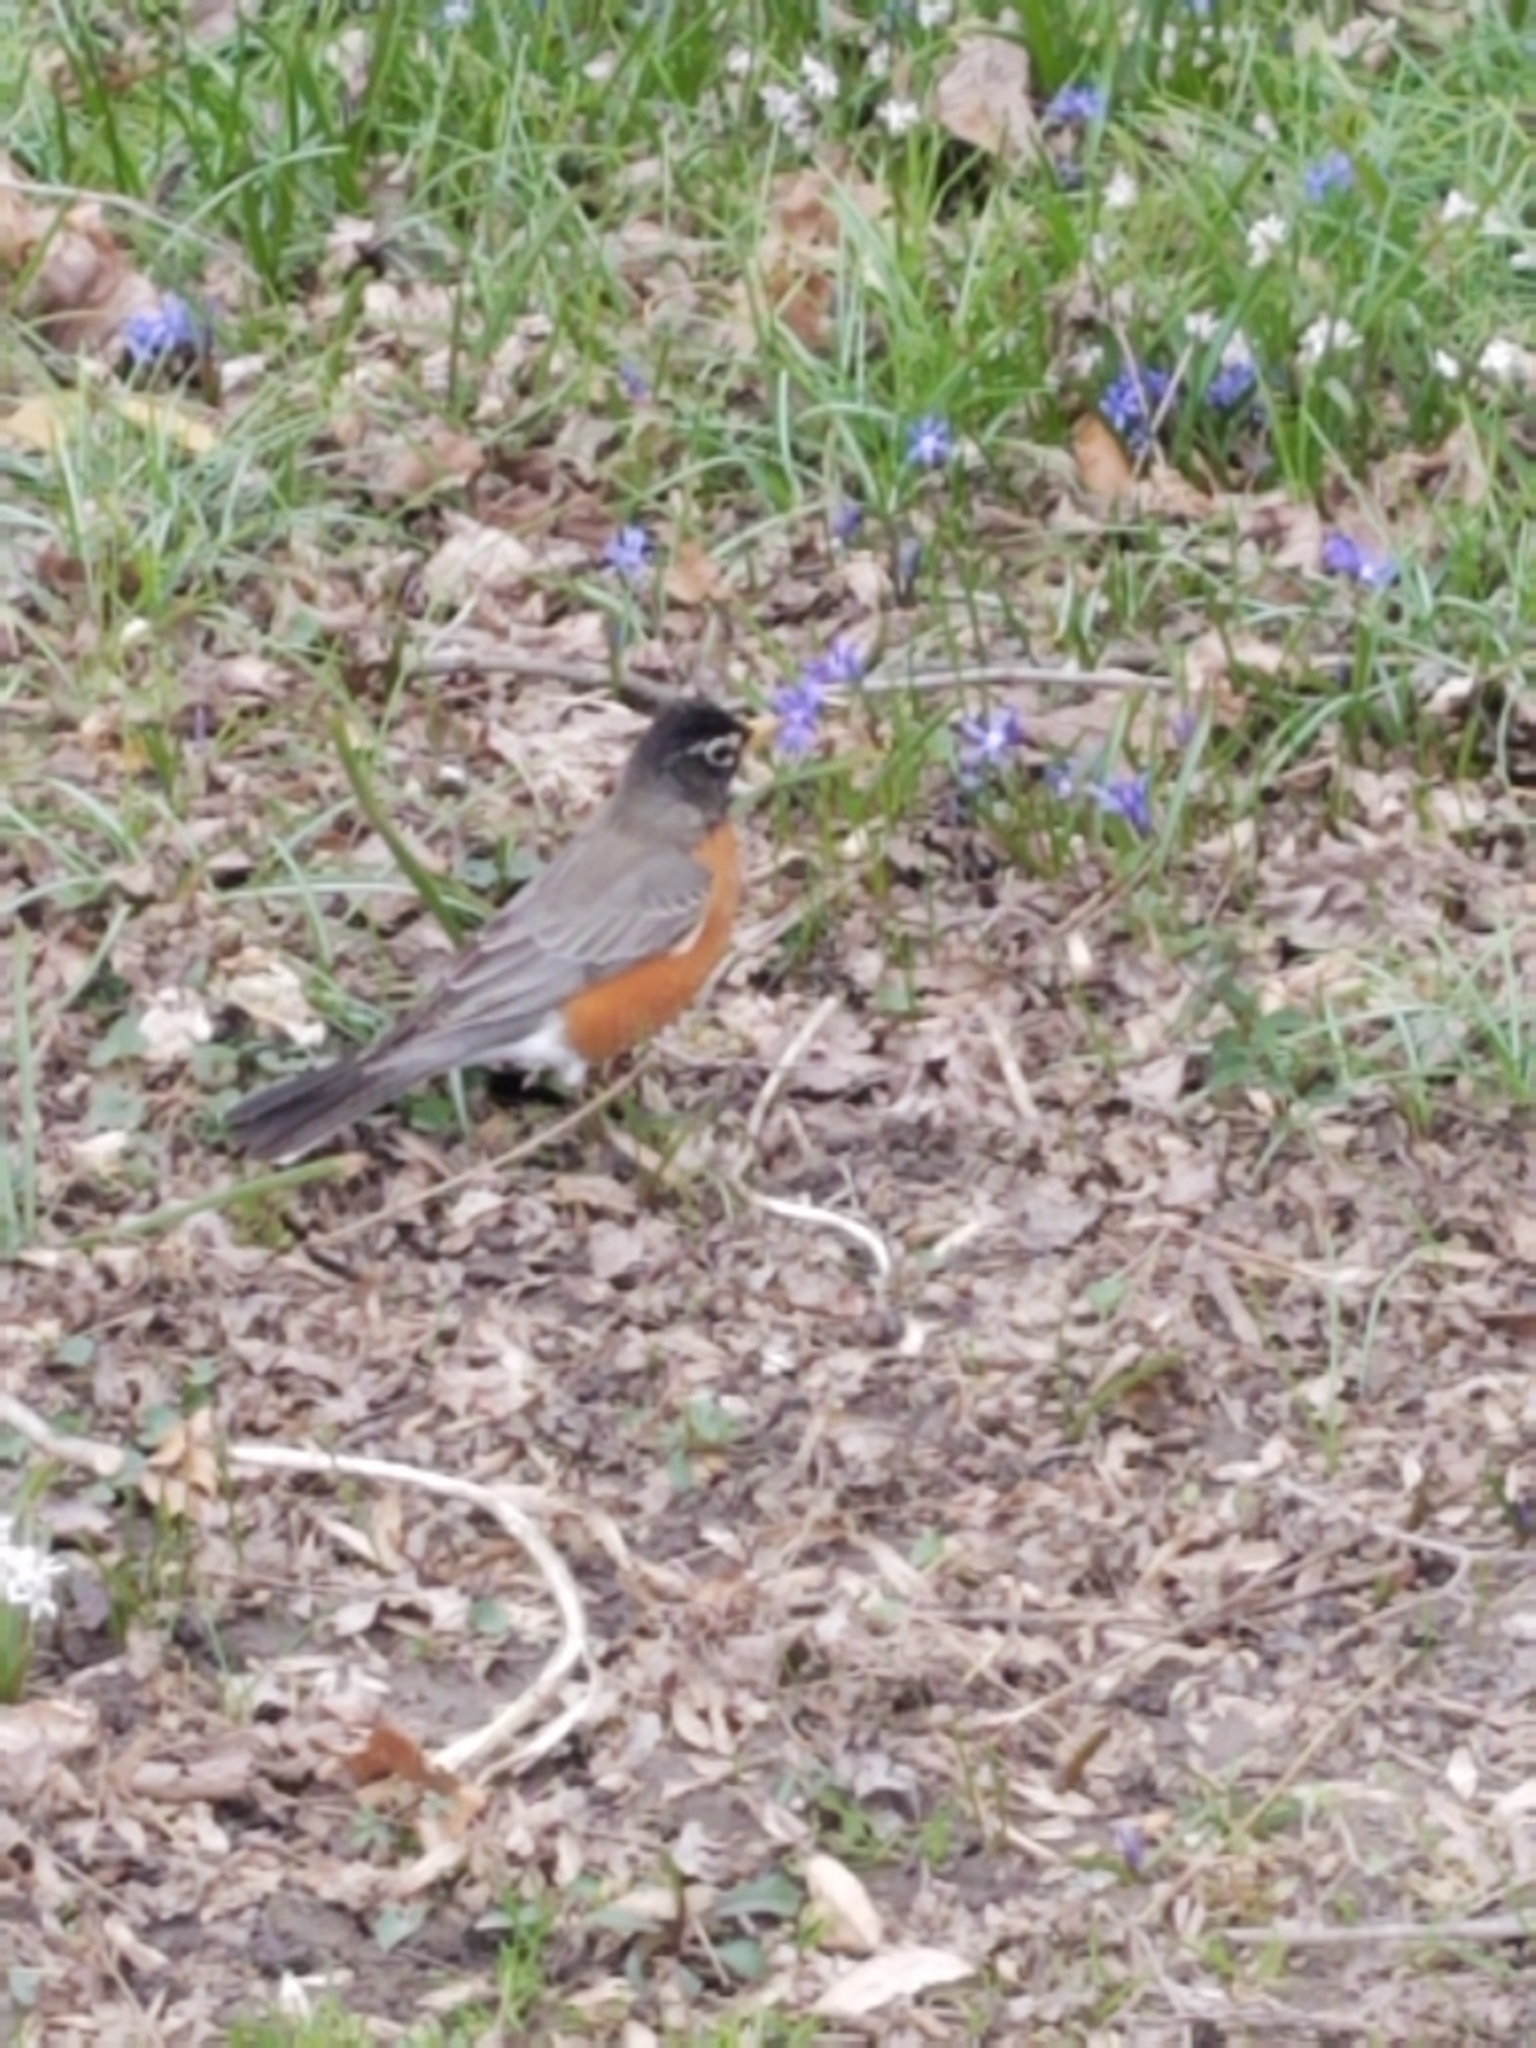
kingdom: Animalia
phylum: Chordata
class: Aves
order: Passeriformes
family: Turdidae
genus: Turdus
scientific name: Turdus migratorius
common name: American robin
